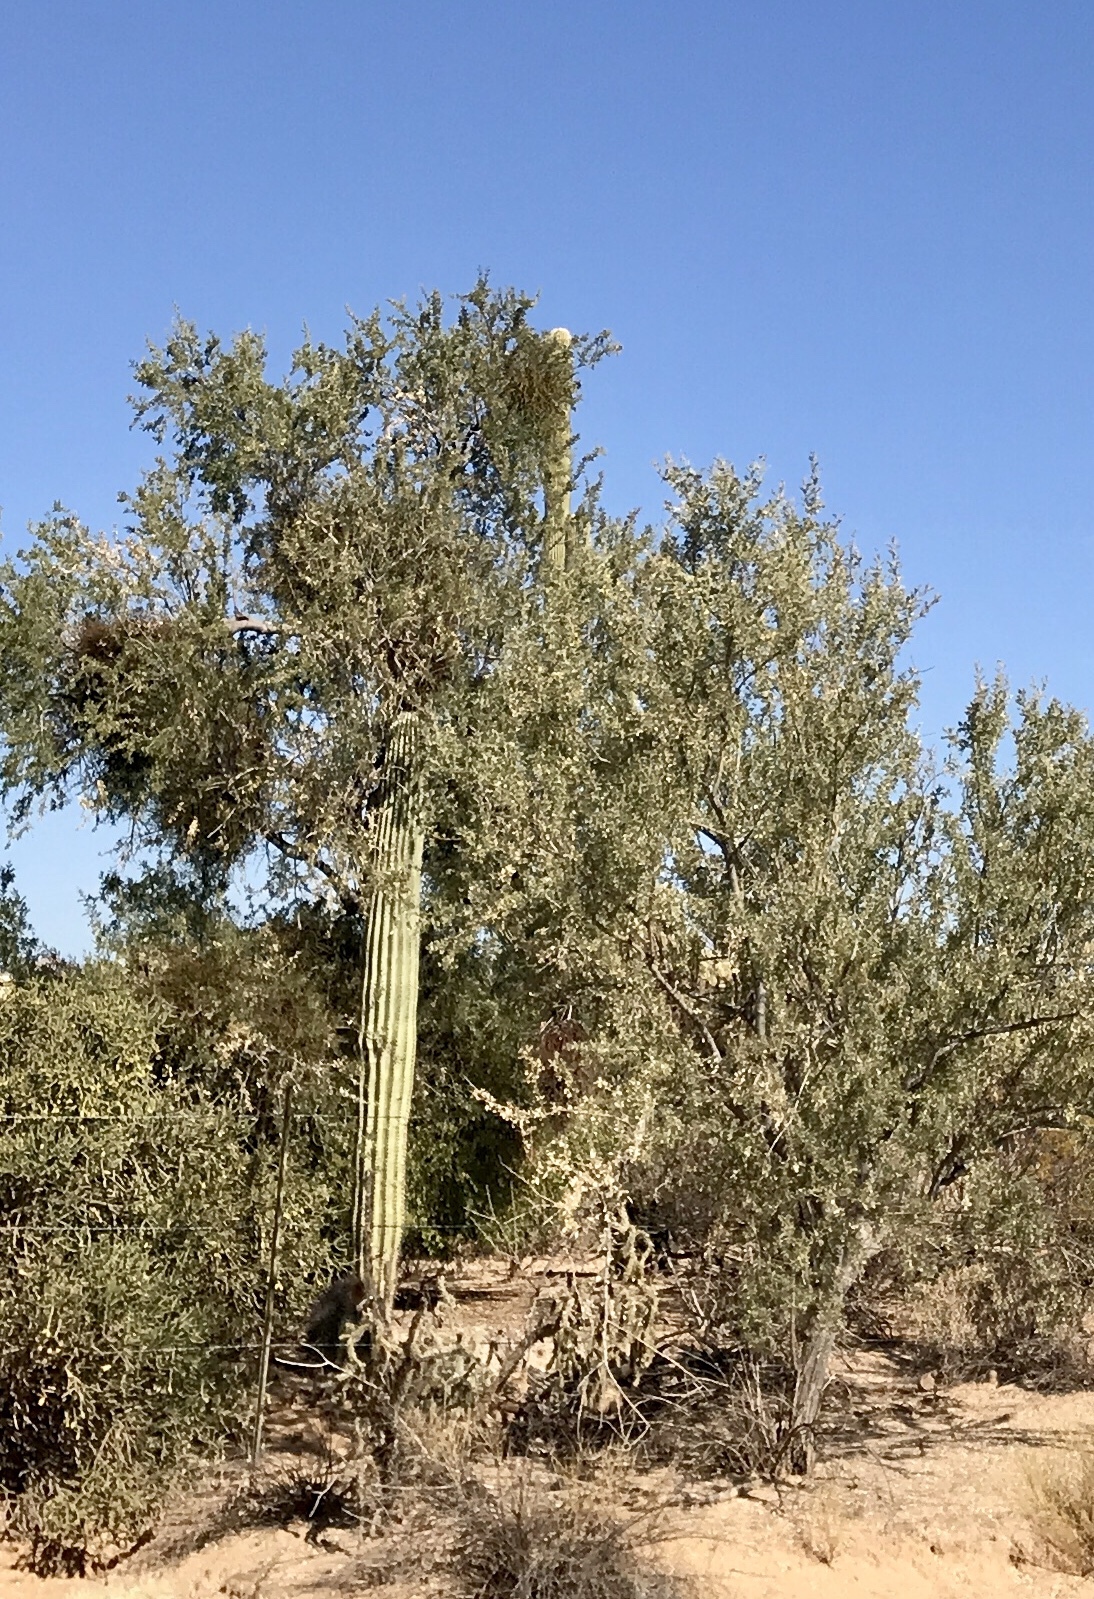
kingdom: Plantae
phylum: Tracheophyta
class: Magnoliopsida
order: Fabales
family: Fabaceae
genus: Olneya
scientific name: Olneya tesota
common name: Desert ironwood
